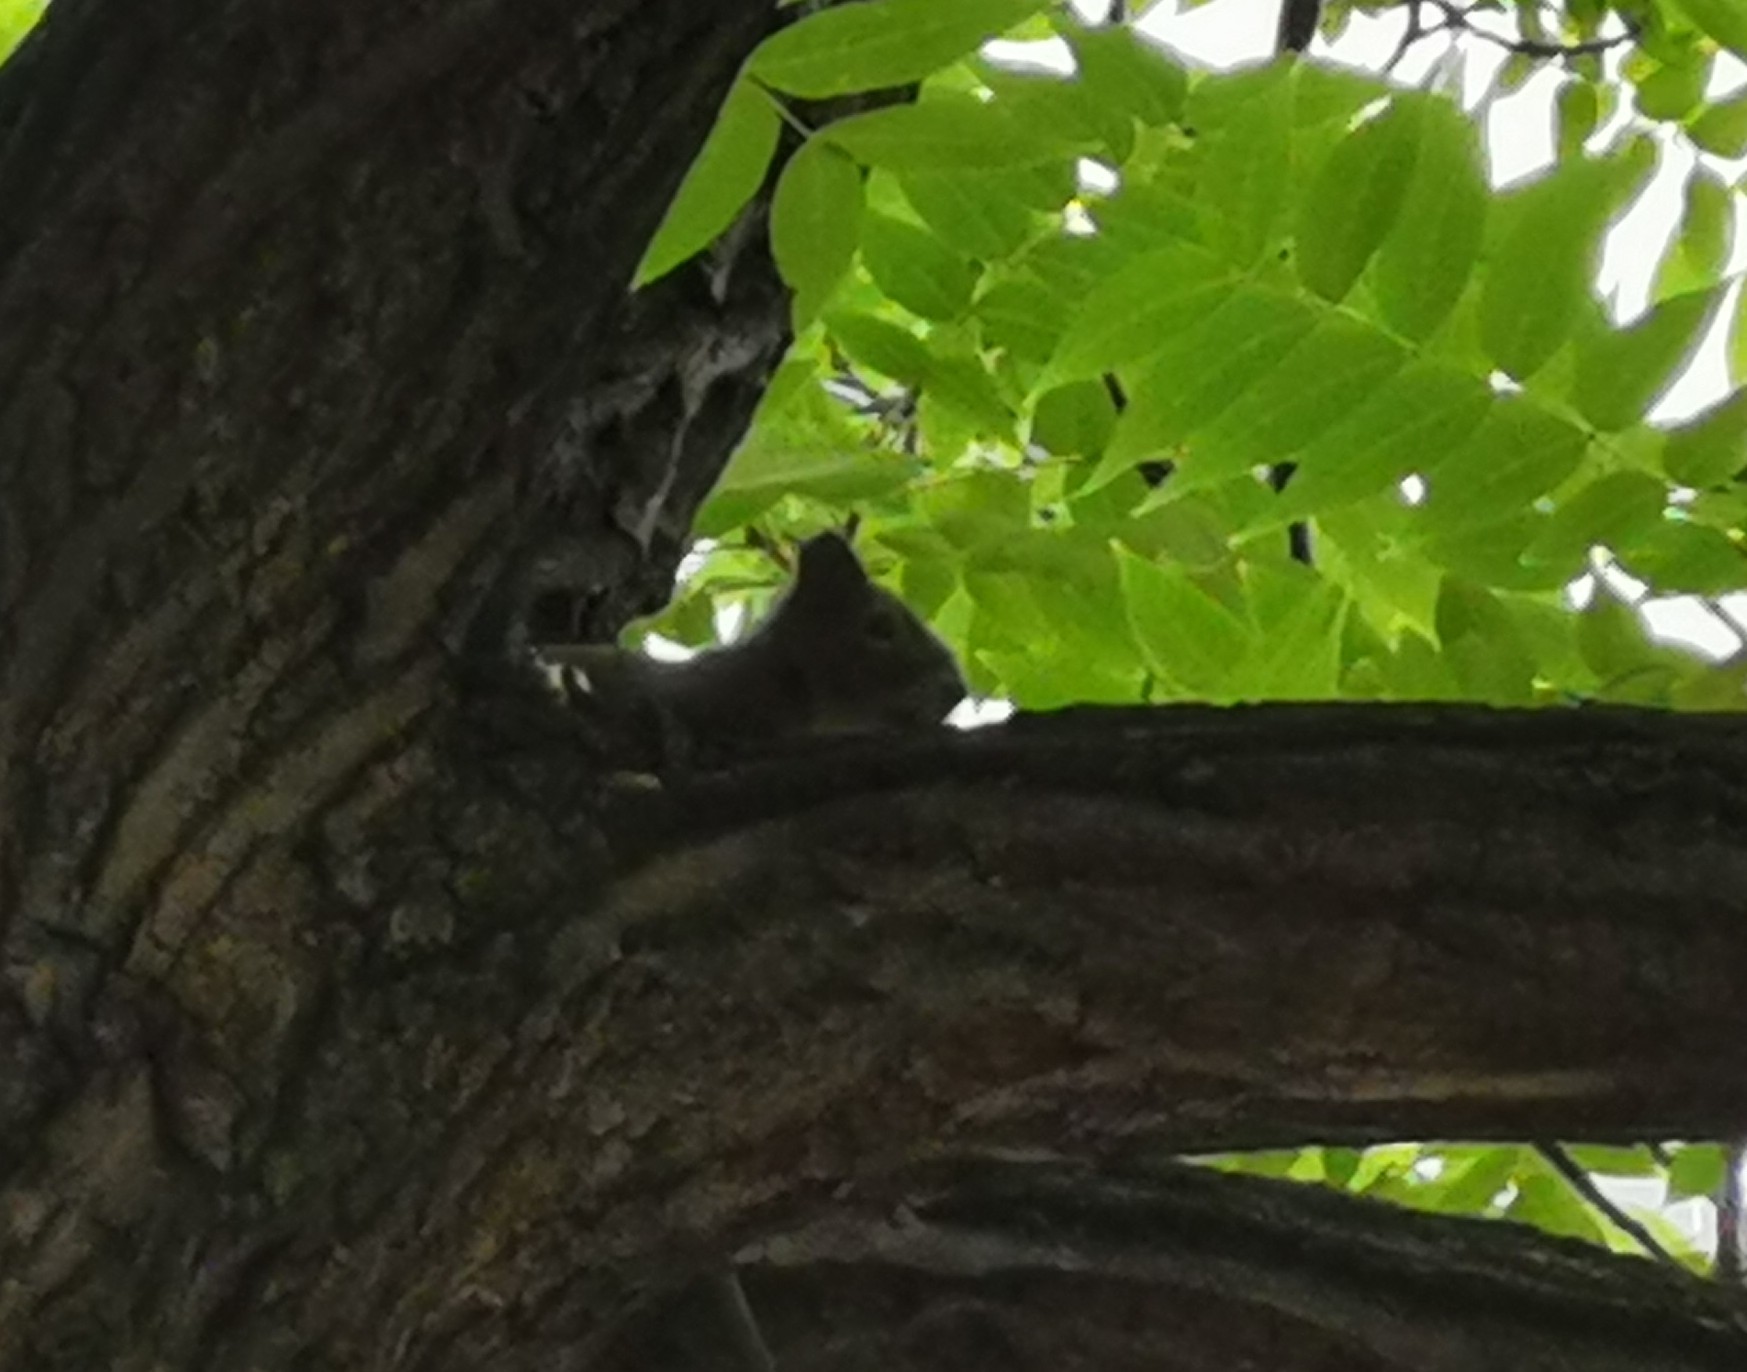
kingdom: Animalia
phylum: Chordata
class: Mammalia
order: Rodentia
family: Sciuridae
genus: Sciurus
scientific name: Sciurus vulgaris
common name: Eurasian red squirrel
